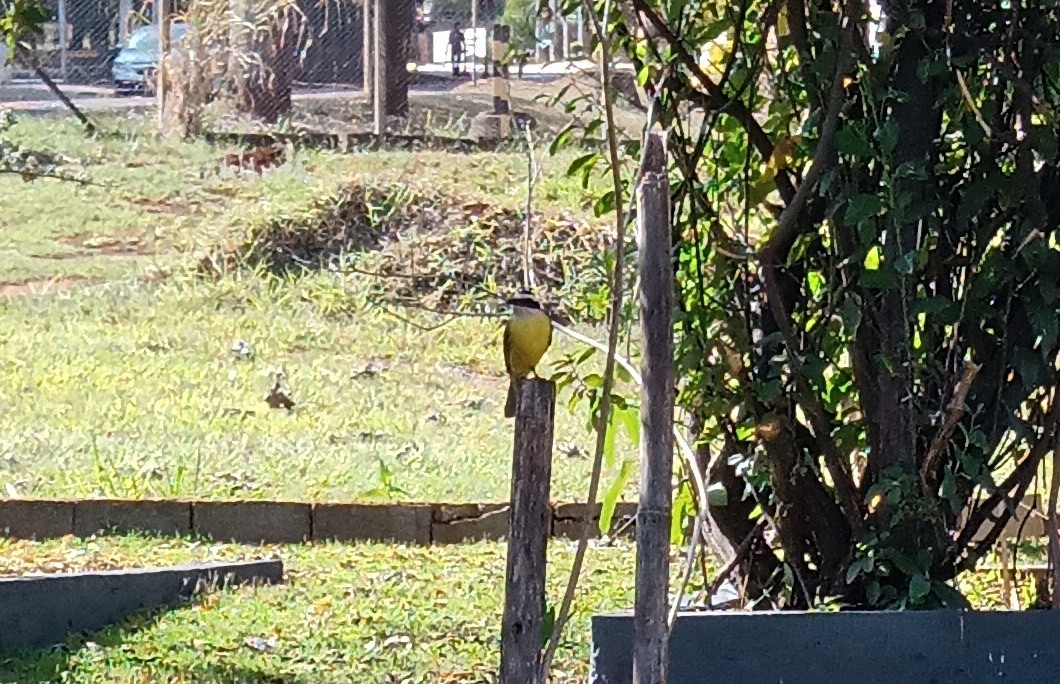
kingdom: Animalia
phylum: Chordata
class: Aves
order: Passeriformes
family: Tyrannidae
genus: Pitangus
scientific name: Pitangus sulphuratus
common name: Great kiskadee
